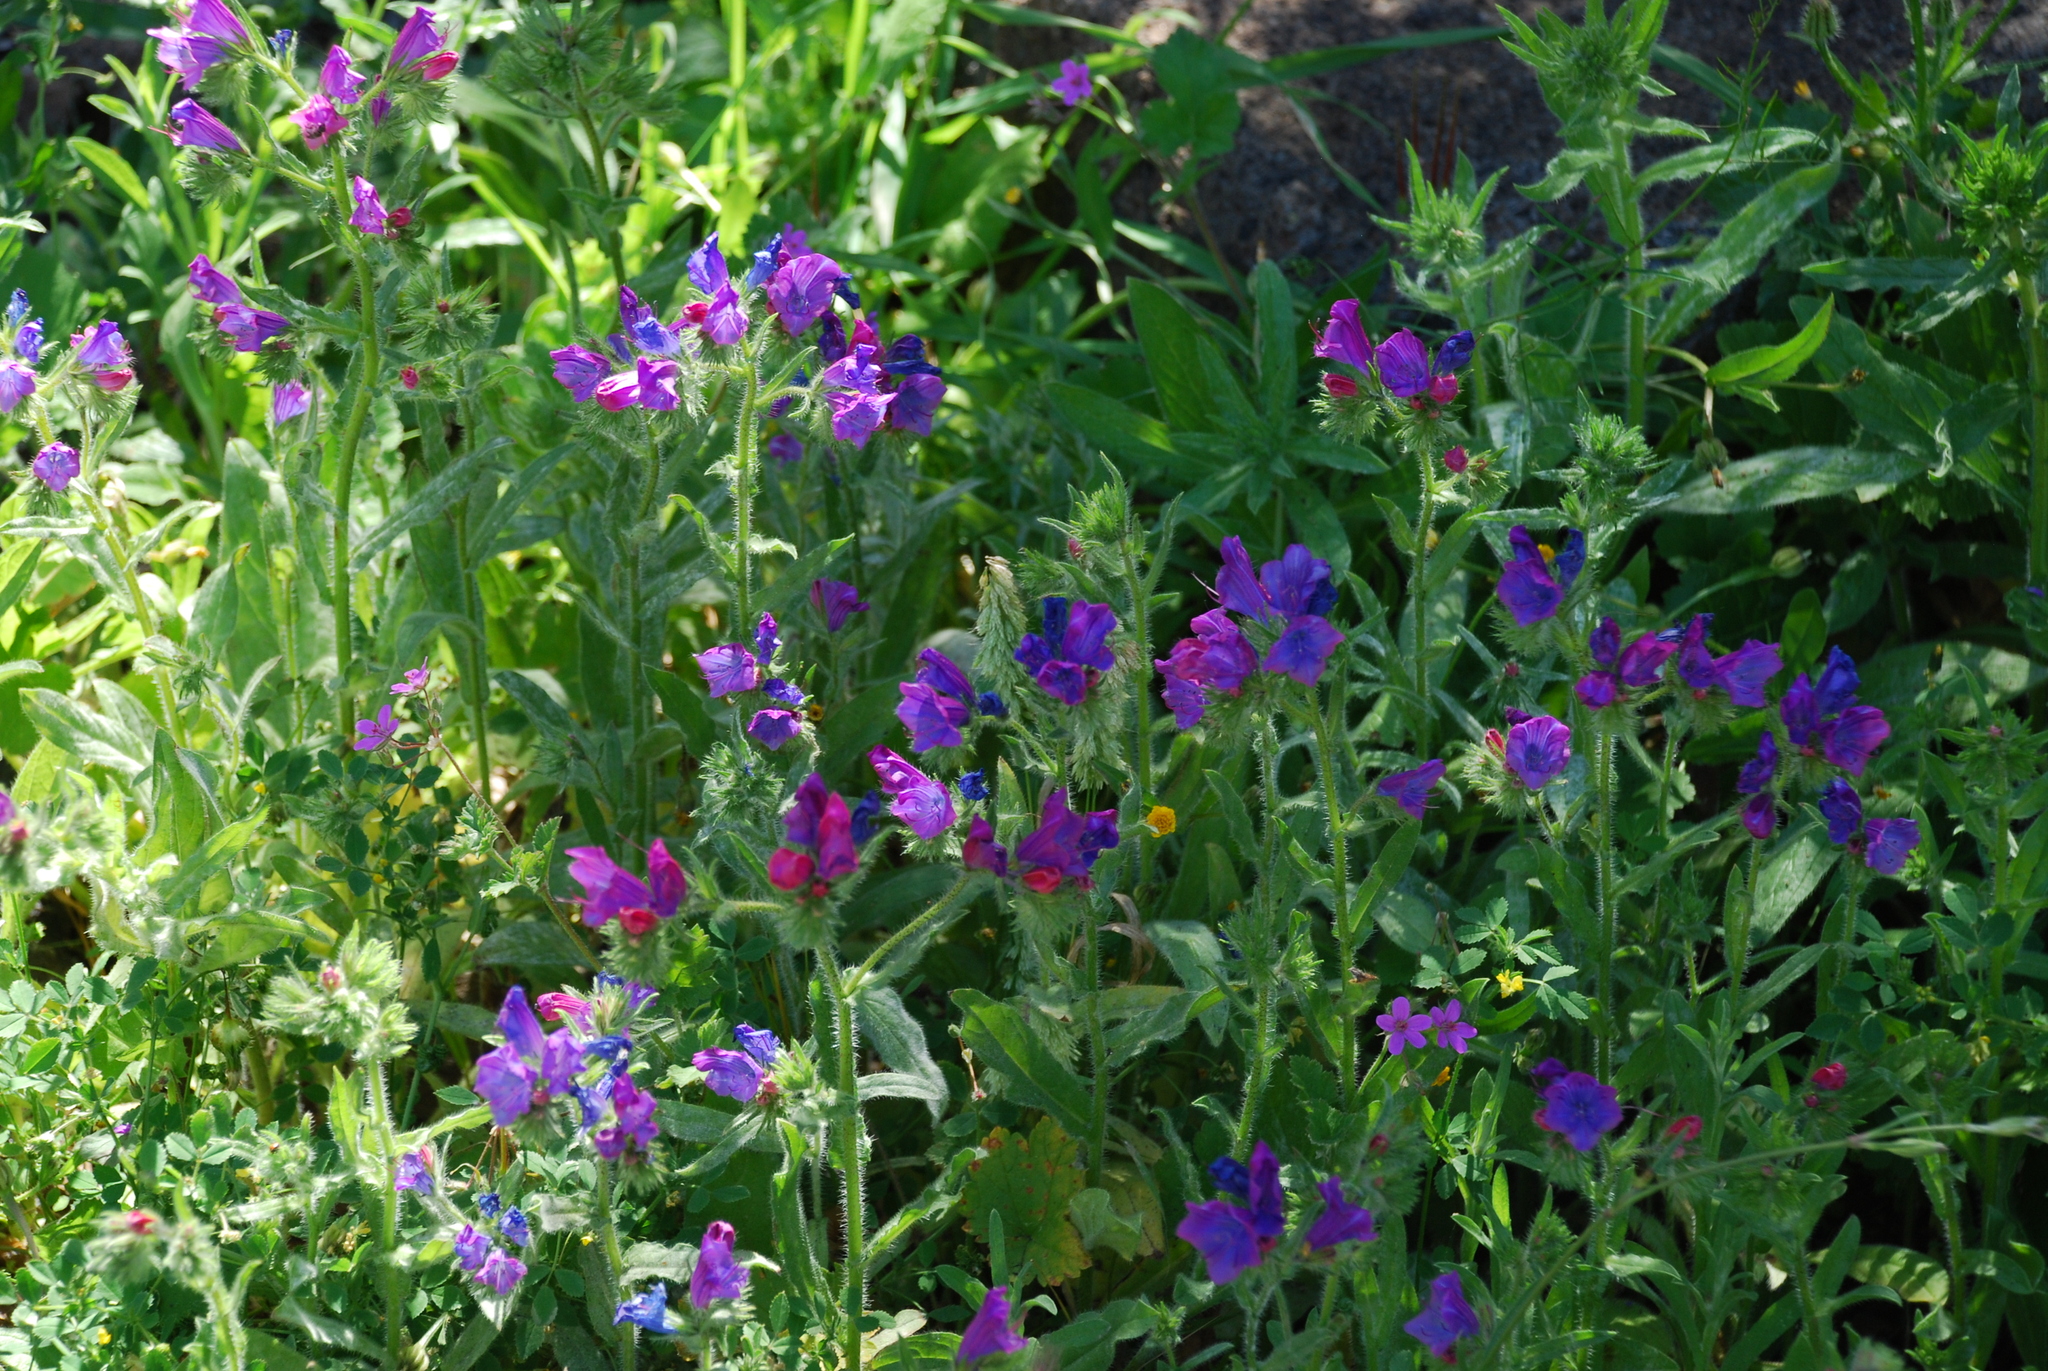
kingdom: Plantae
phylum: Tracheophyta
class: Magnoliopsida
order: Boraginales
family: Boraginaceae
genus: Echium
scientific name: Echium plantagineum
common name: Purple viper's-bugloss
